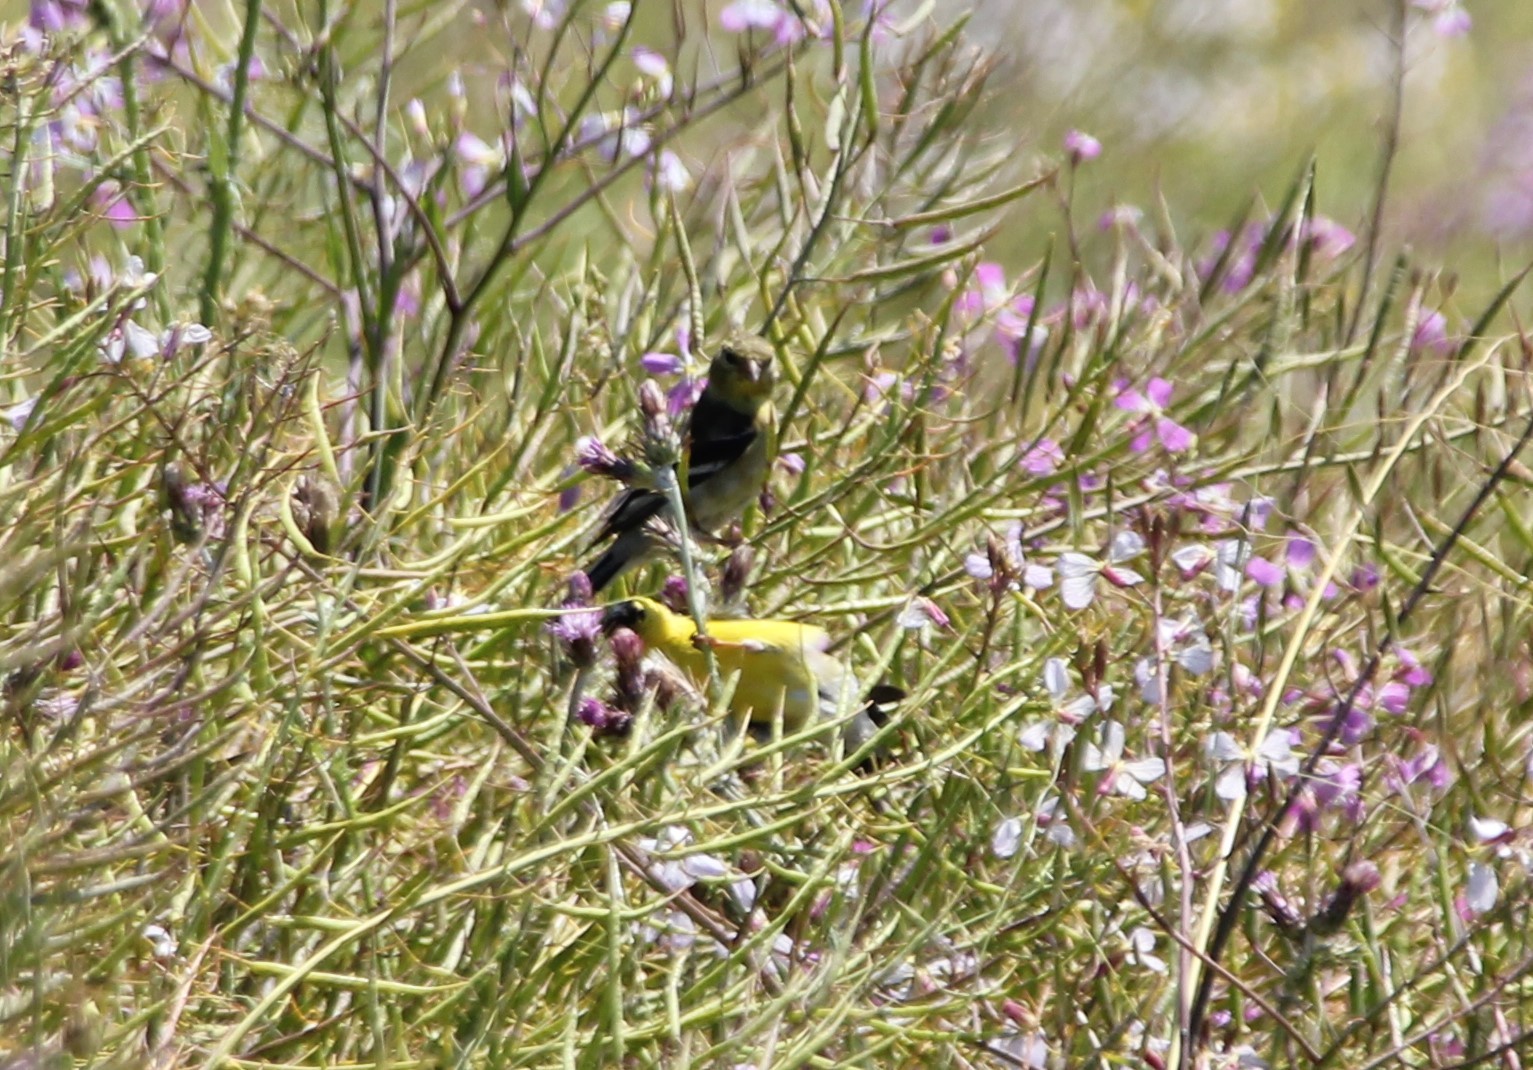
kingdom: Animalia
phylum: Chordata
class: Aves
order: Passeriformes
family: Fringillidae
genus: Spinus
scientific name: Spinus tristis
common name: American goldfinch
